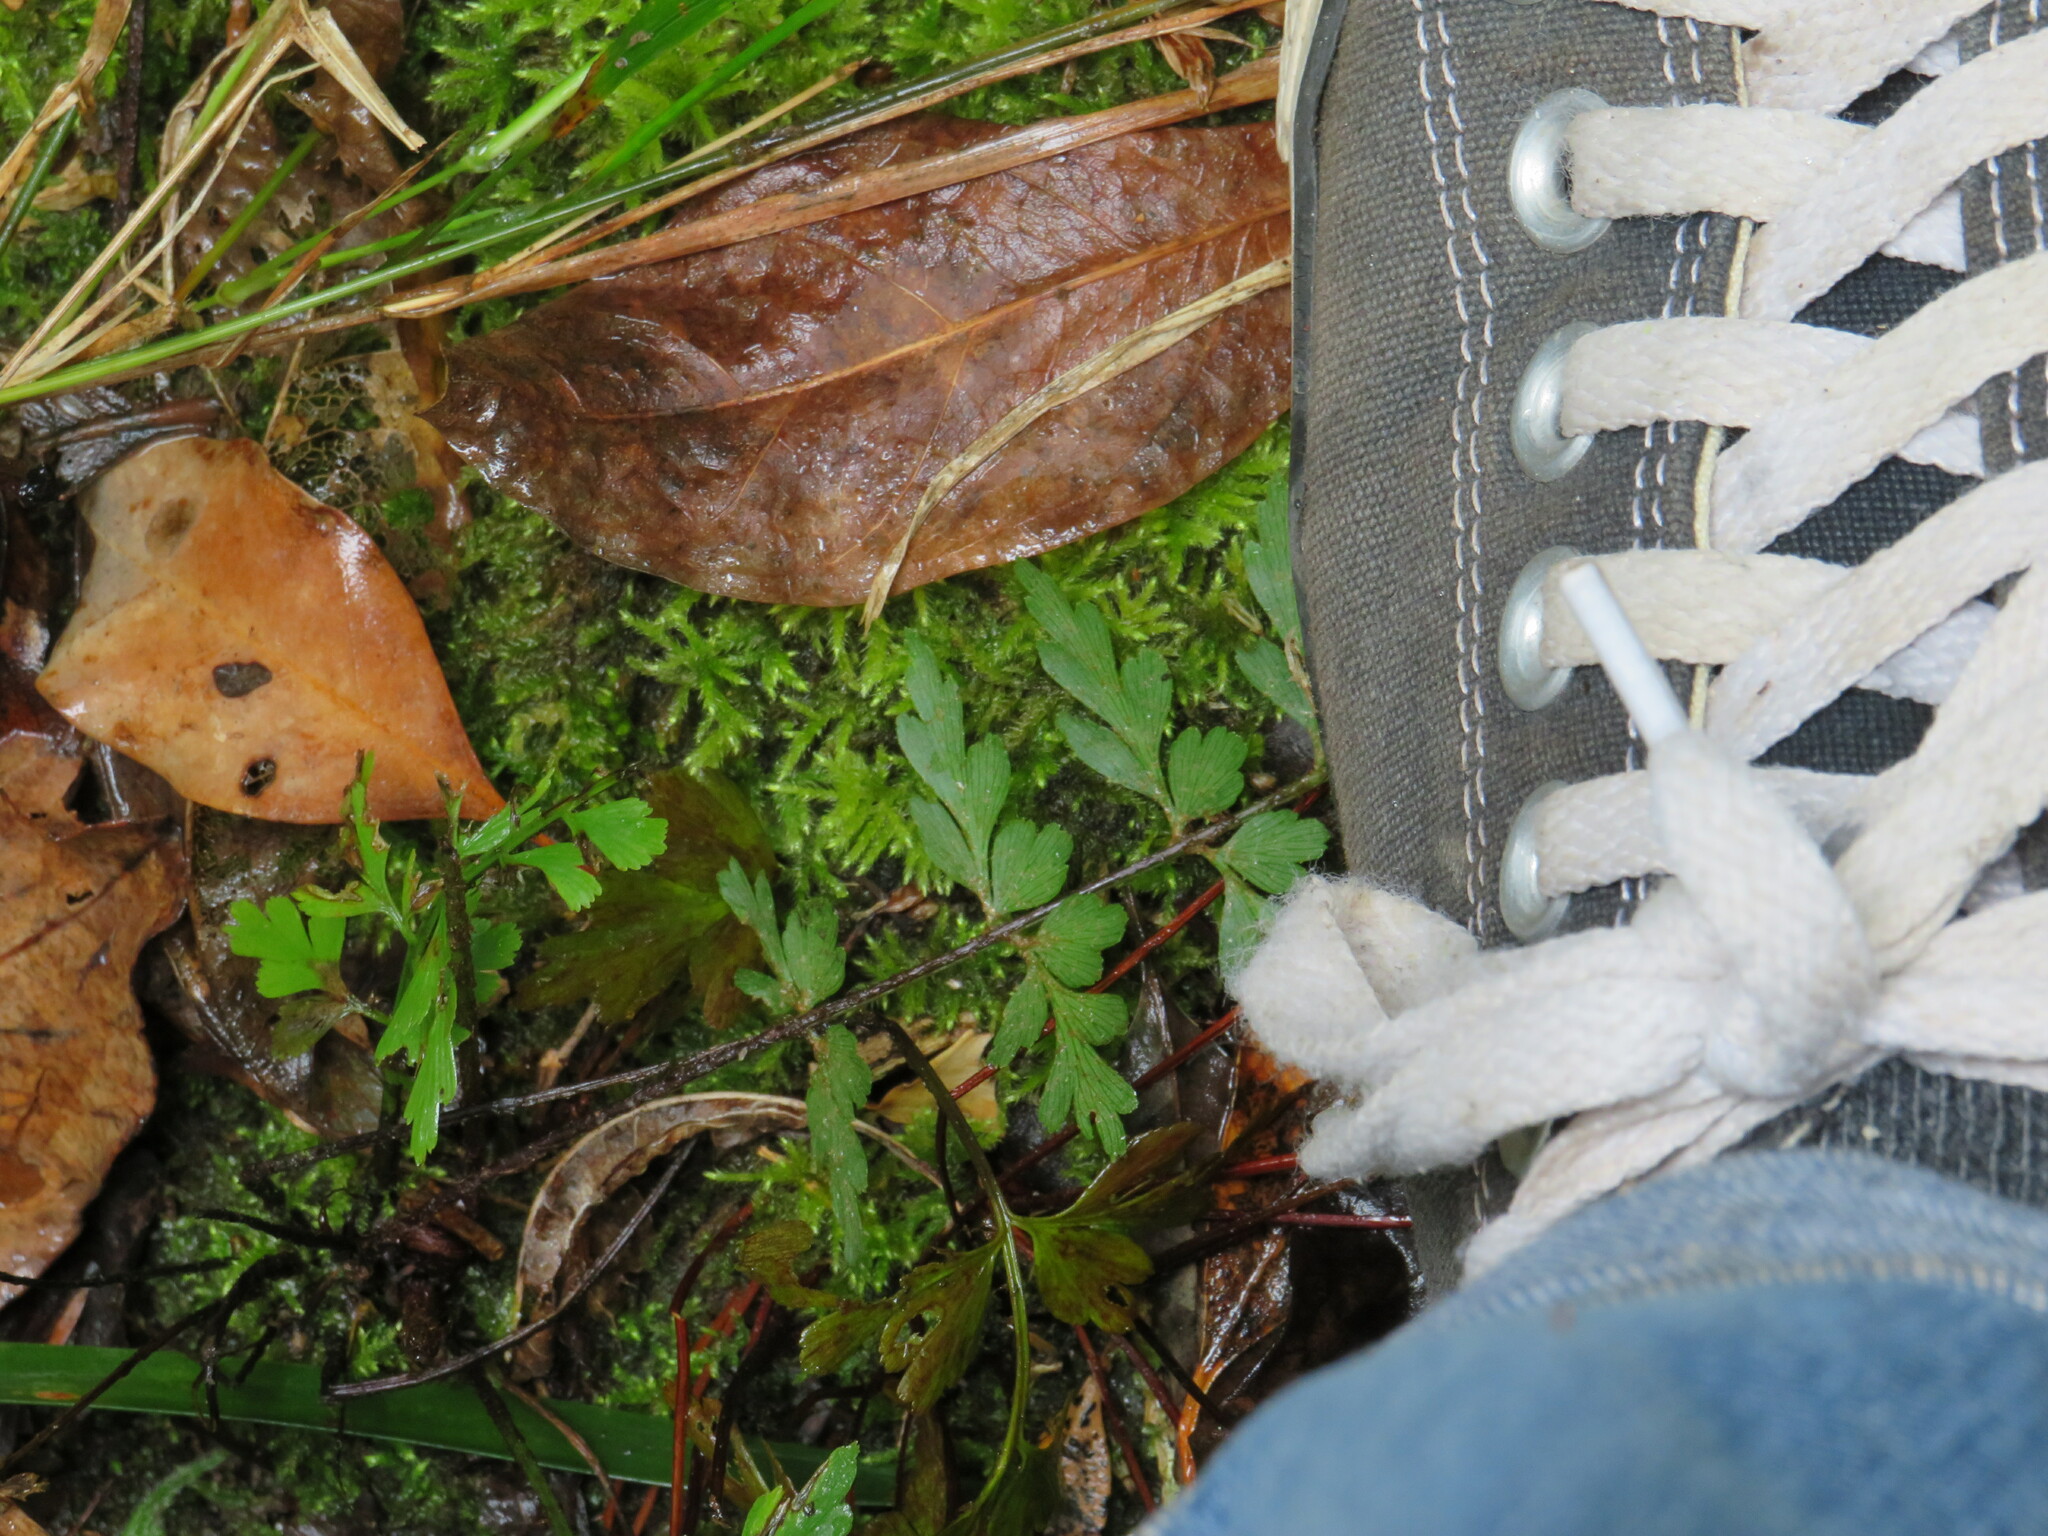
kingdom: Plantae
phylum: Tracheophyta
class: Polypodiopsida
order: Polypodiales
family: Aspleniaceae
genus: Asplenium
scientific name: Asplenium aethiopicum
